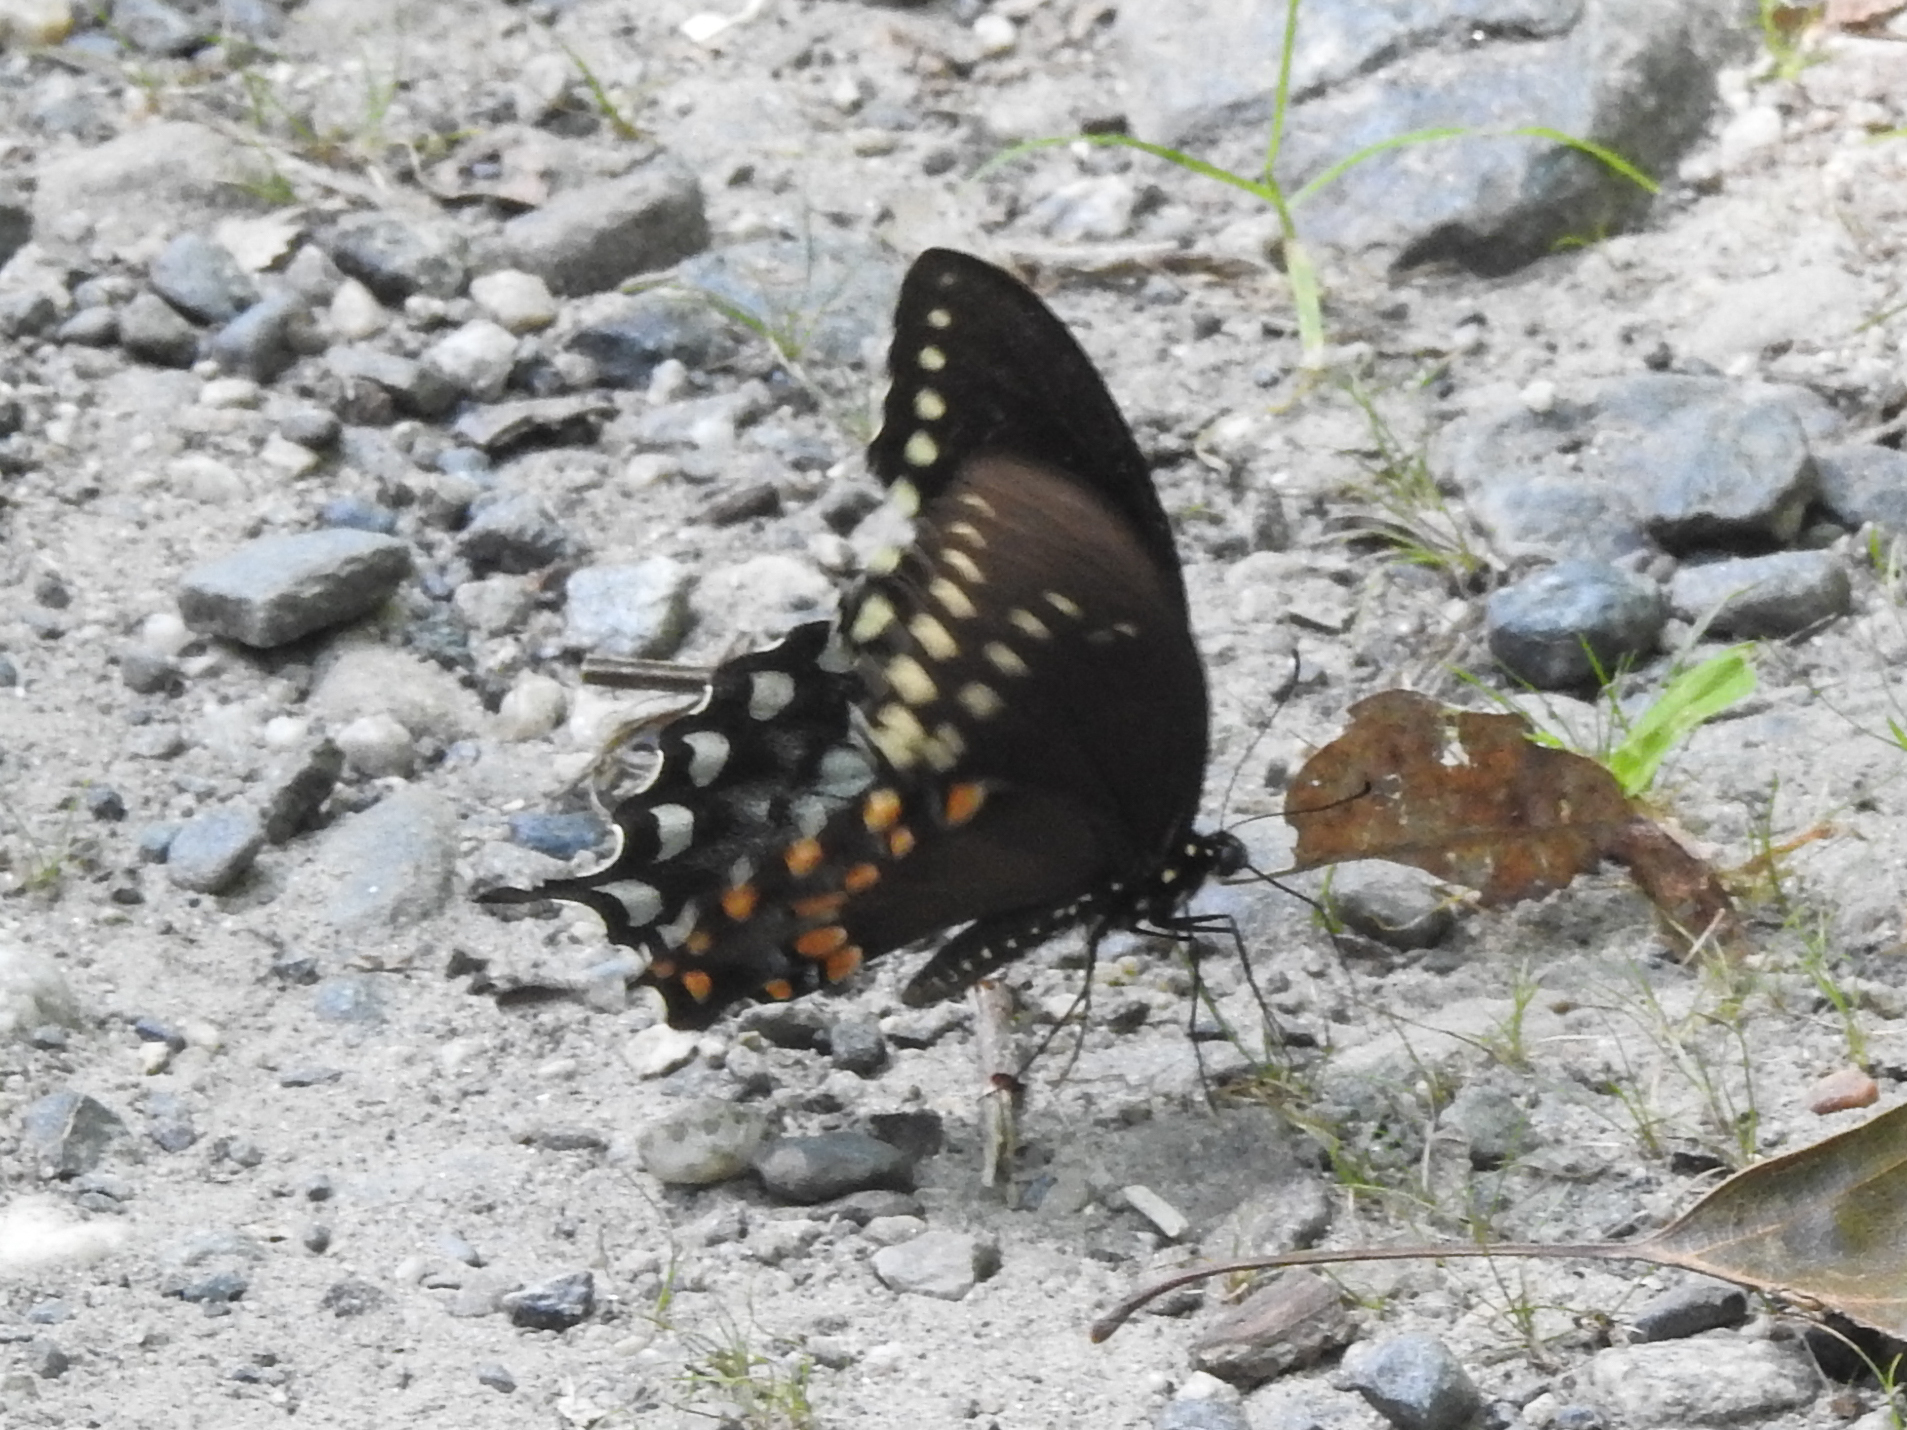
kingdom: Animalia
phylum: Arthropoda
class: Insecta
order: Lepidoptera
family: Papilionidae
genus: Papilio
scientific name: Papilio troilus
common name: Spicebush swallowtail
